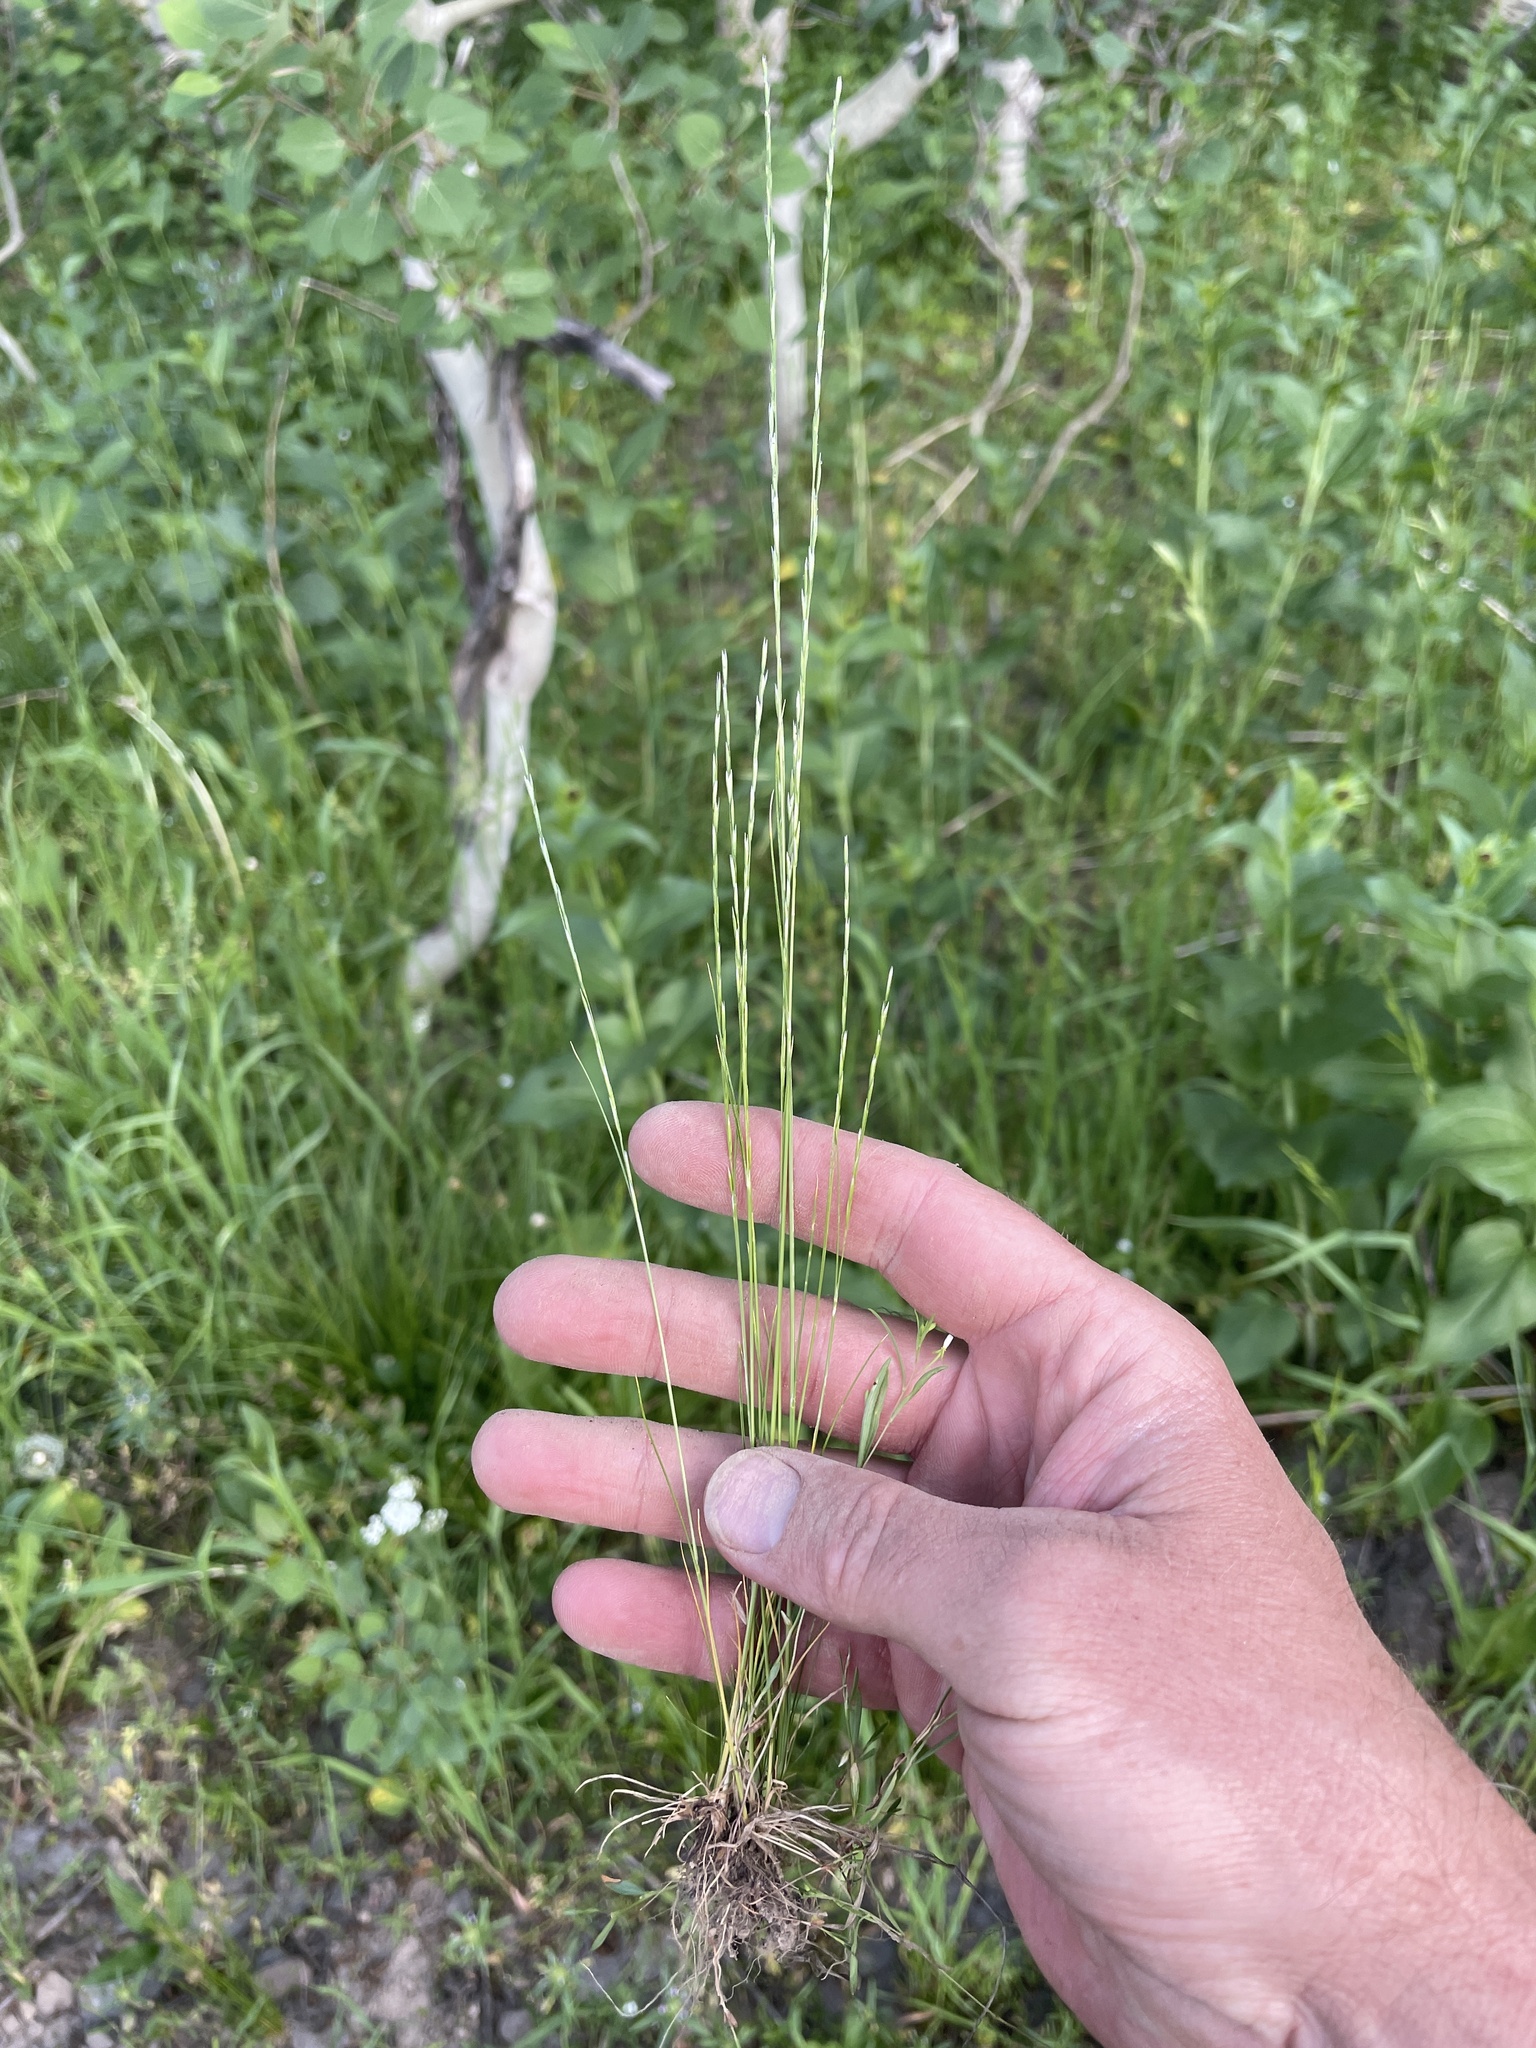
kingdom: Plantae
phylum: Tracheophyta
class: Liliopsida
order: Poales
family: Poaceae
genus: Deschampsia
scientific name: Deschampsia elongata
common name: Slender hairgrass
